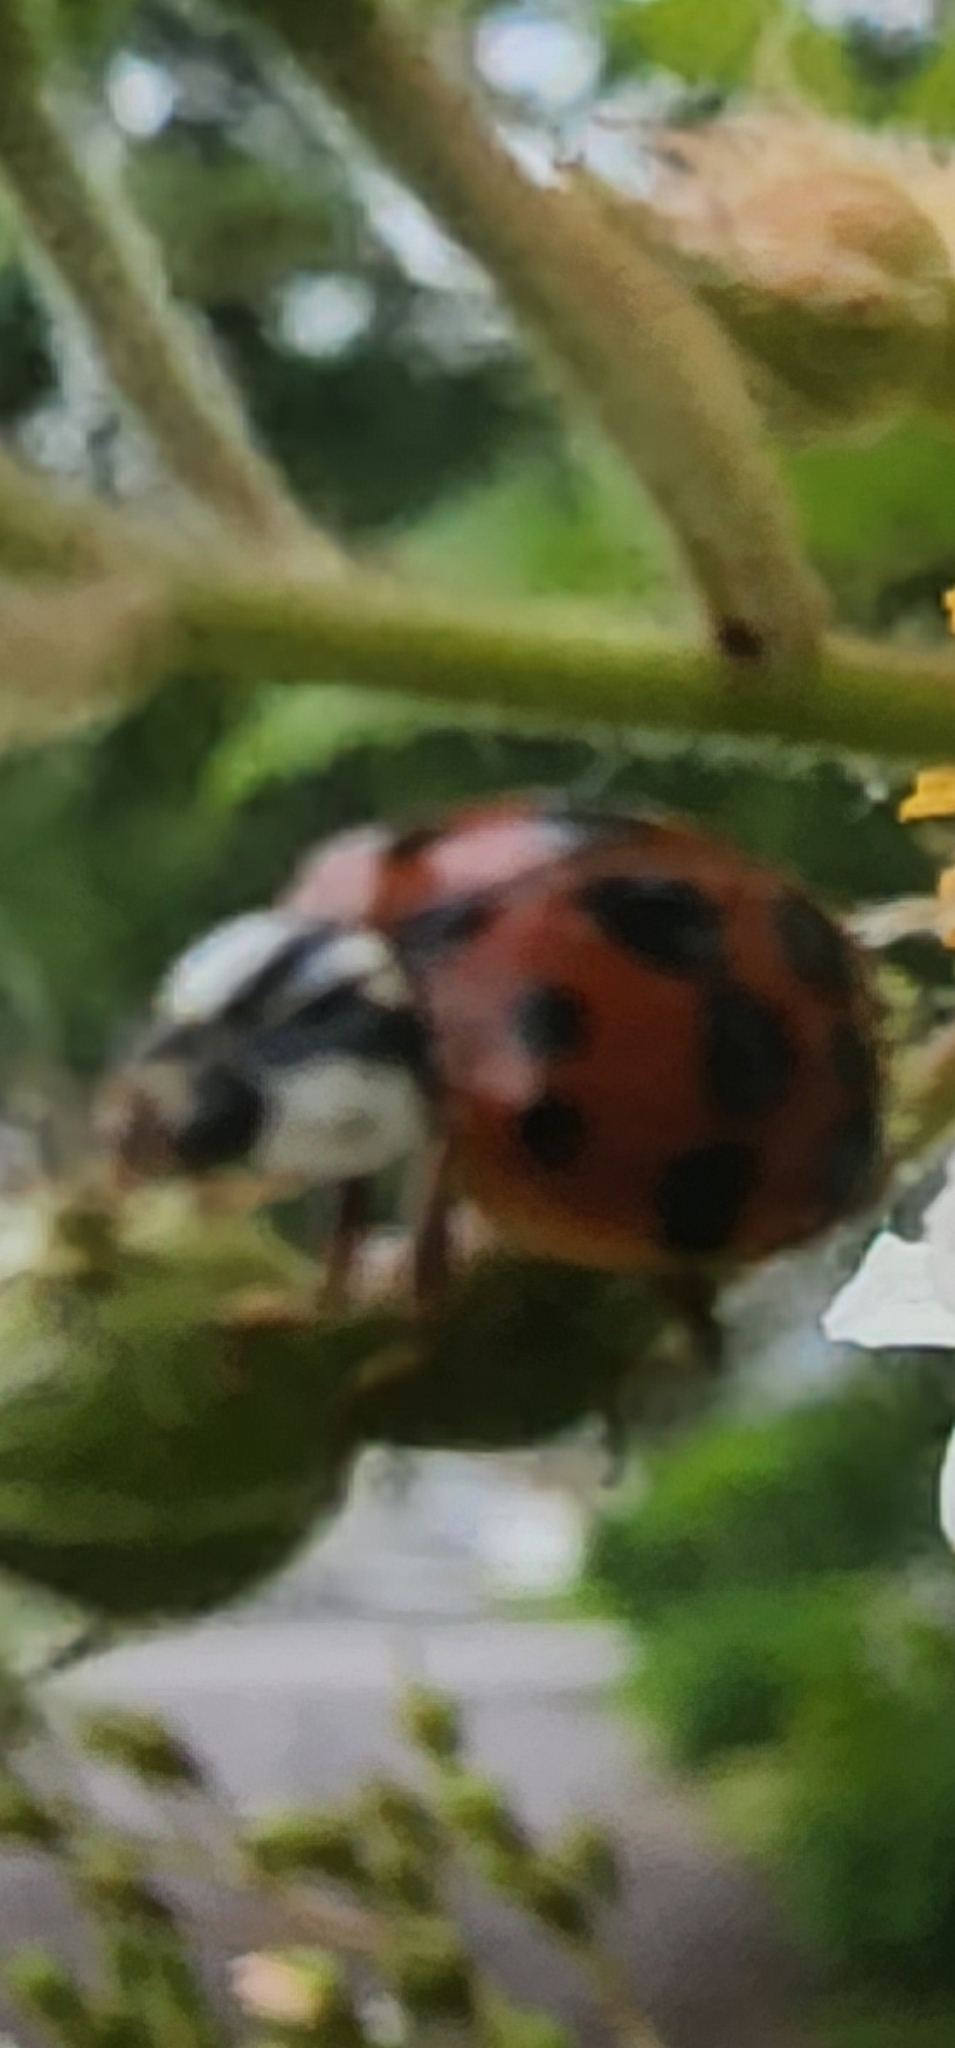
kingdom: Animalia
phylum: Arthropoda
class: Insecta
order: Coleoptera
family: Coccinellidae
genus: Harmonia
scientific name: Harmonia axyridis
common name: Harlequin ladybird
